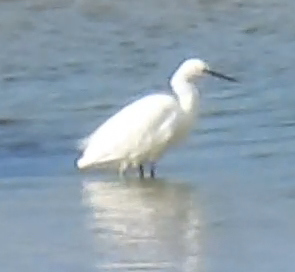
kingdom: Animalia
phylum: Chordata
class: Aves
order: Pelecaniformes
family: Ardeidae
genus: Egretta
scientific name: Egretta garzetta
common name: Little egret
